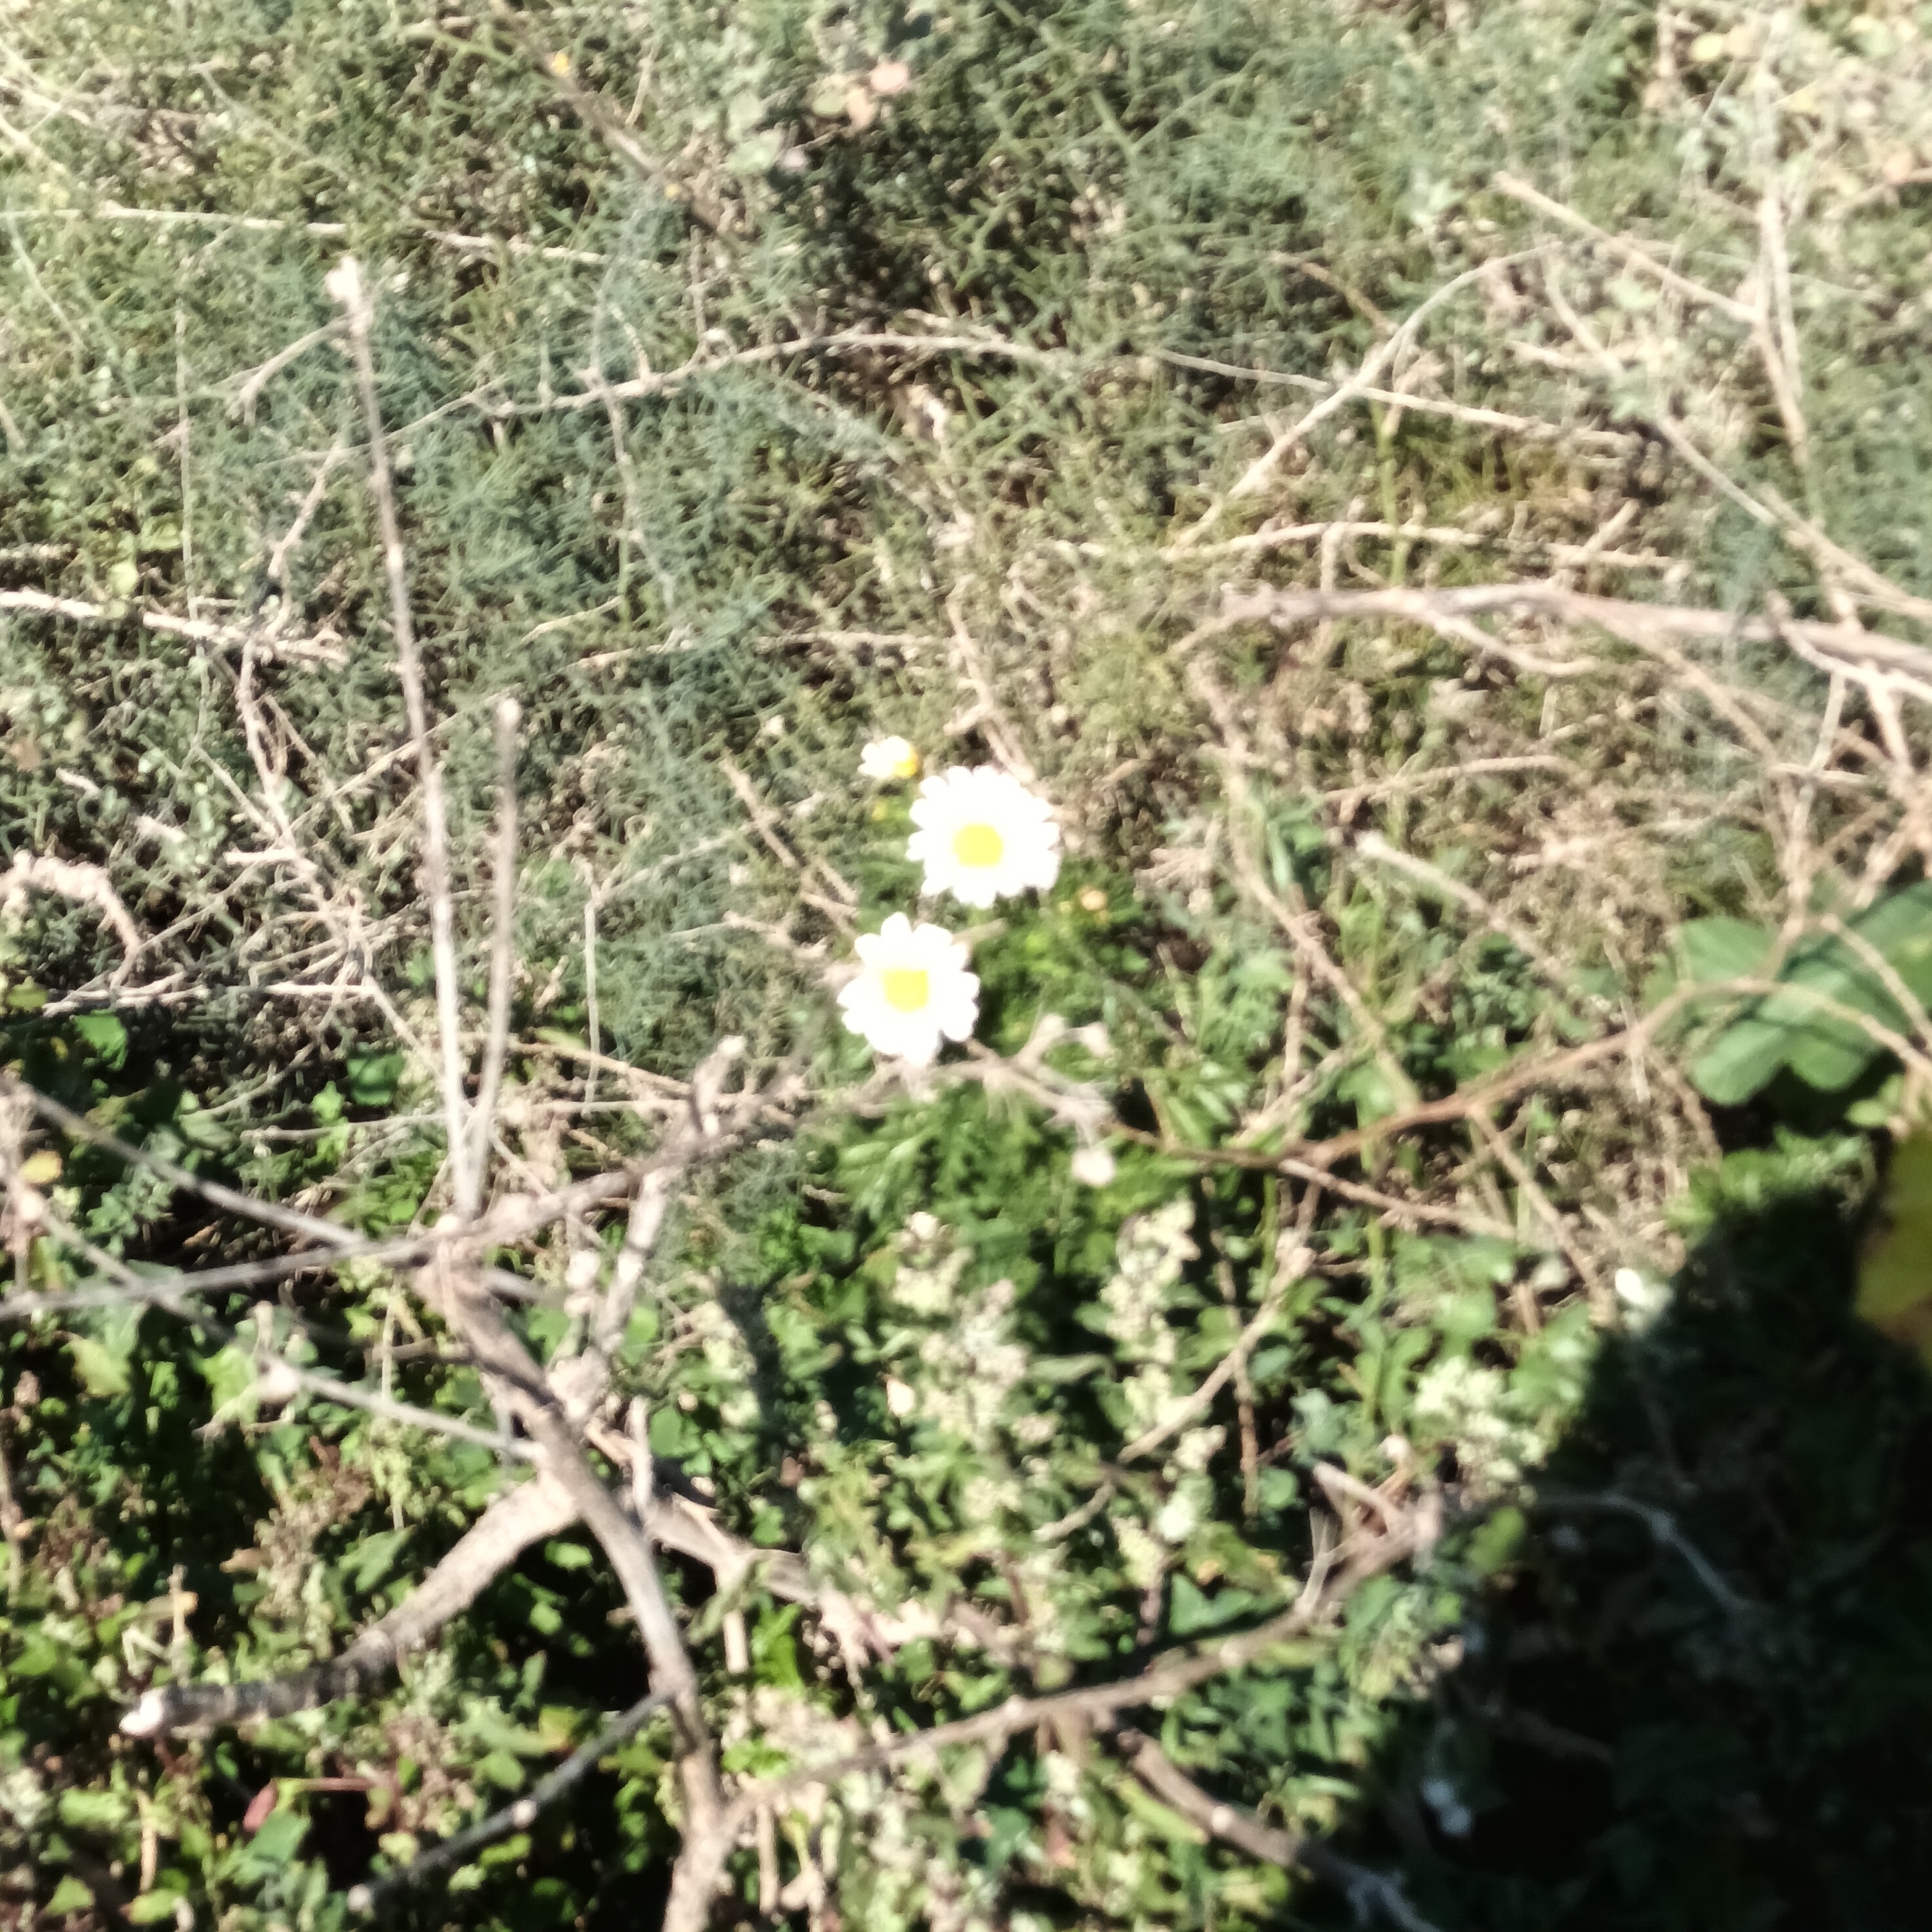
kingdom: Plantae
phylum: Tracheophyta
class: Magnoliopsida
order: Asterales
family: Asteraceae
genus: Glebionis
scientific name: Glebionis coronaria
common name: Crowndaisy
